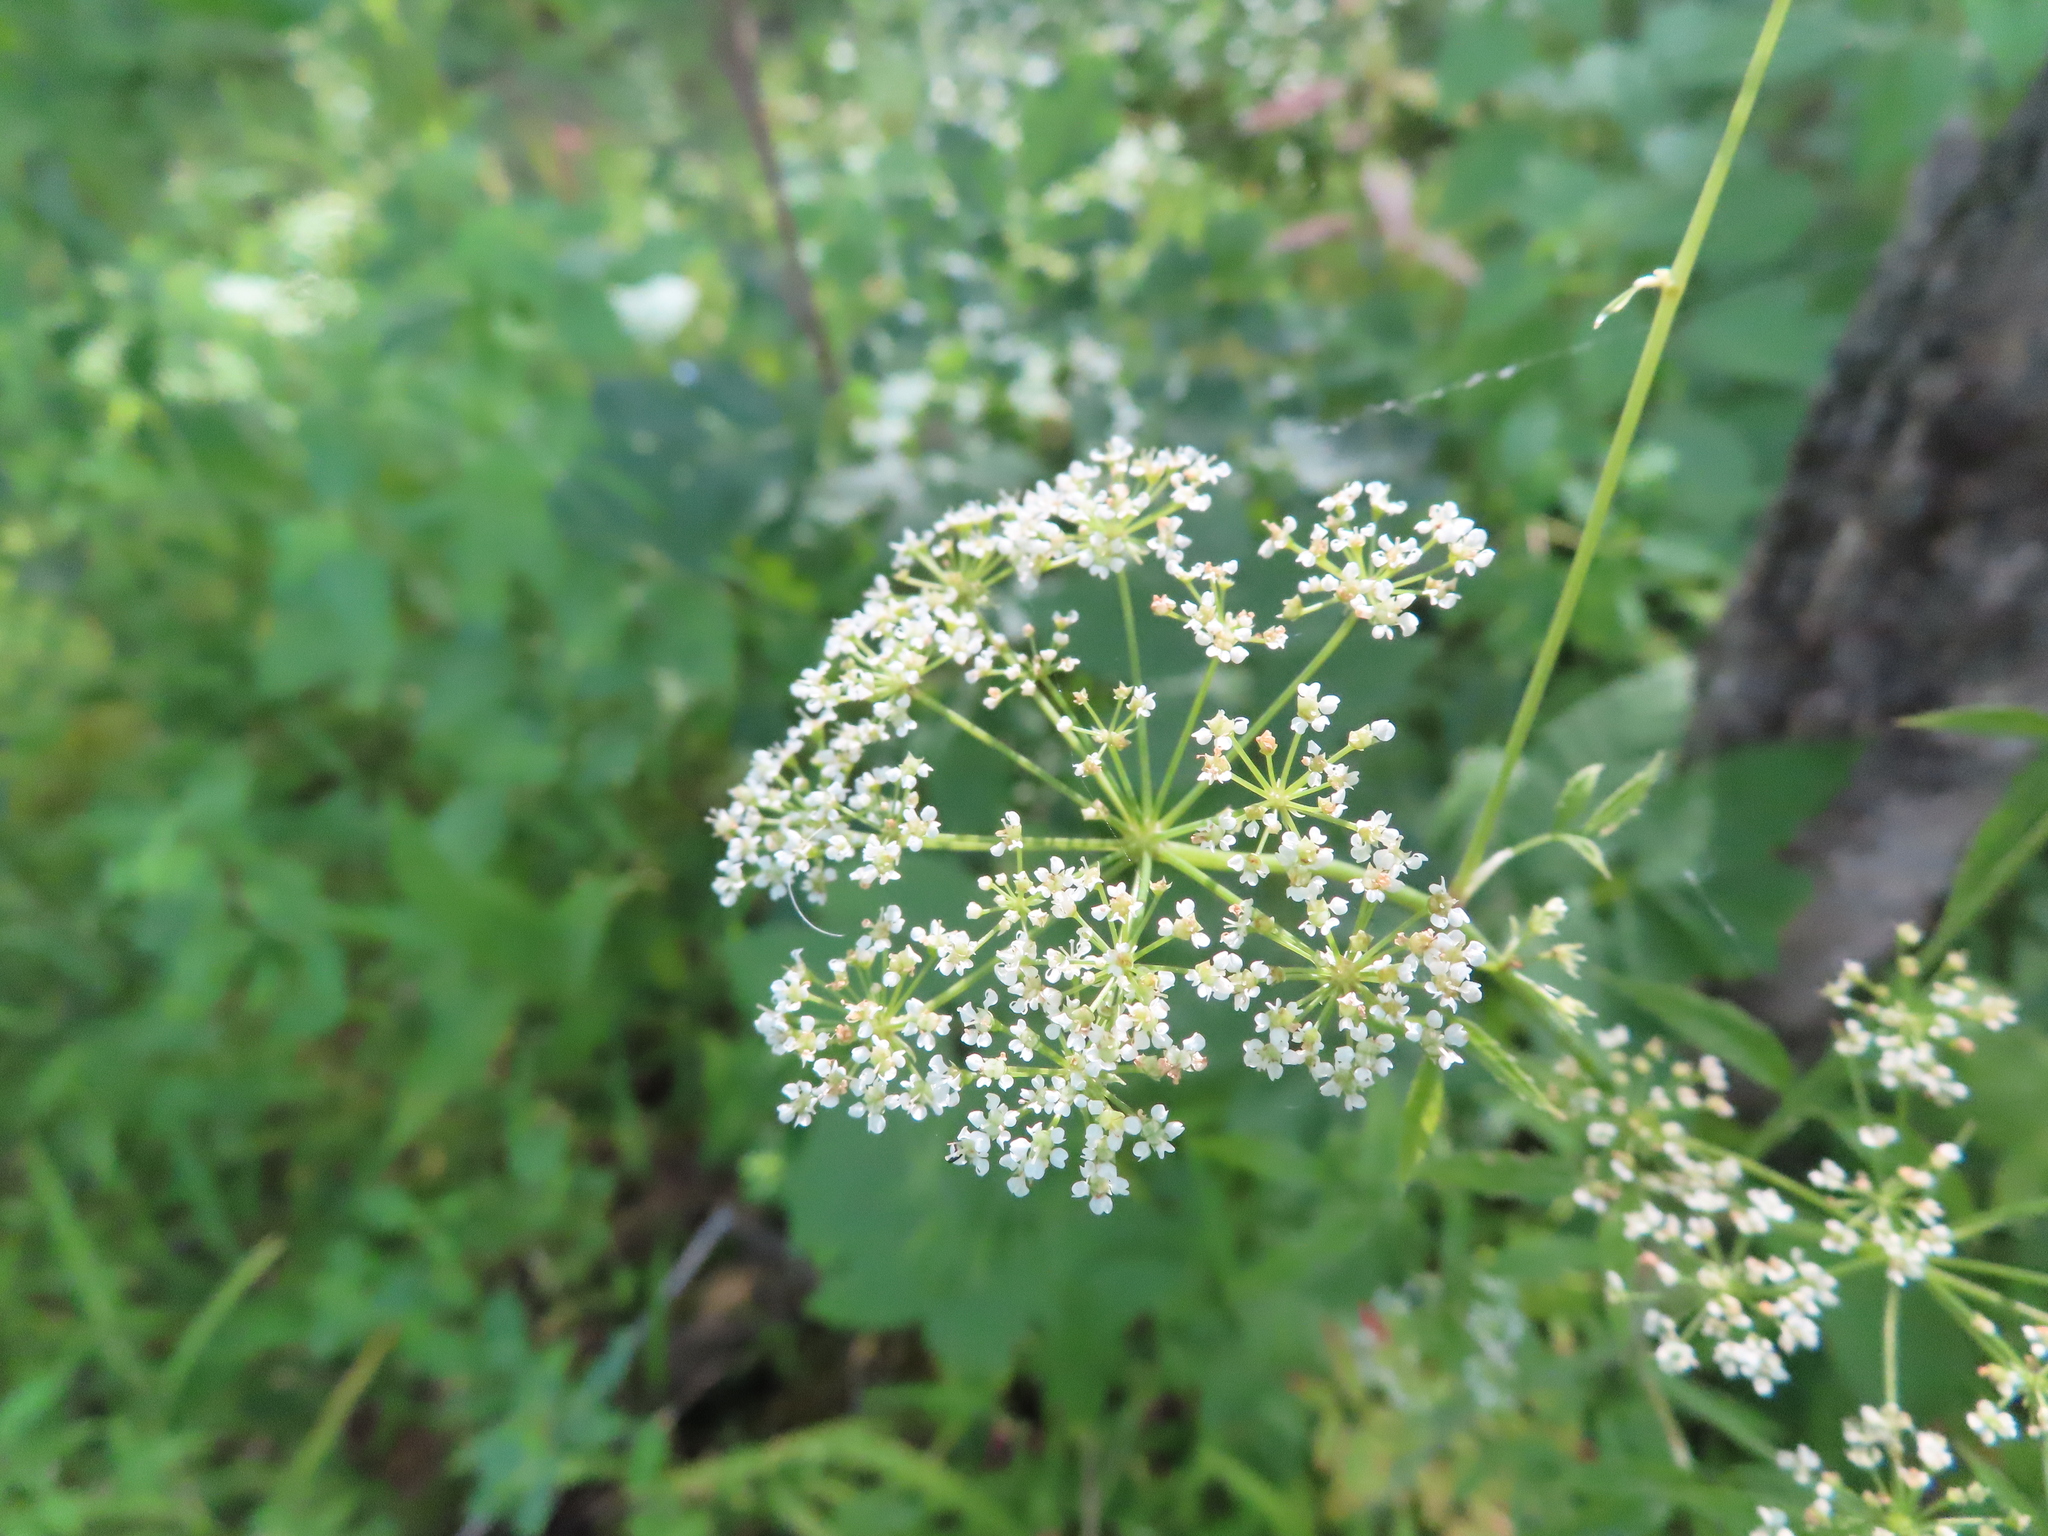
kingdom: Plantae
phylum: Tracheophyta
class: Magnoliopsida
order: Apiales
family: Apiaceae
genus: Cicuta
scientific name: Cicuta maculata
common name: Spotted cowbane
